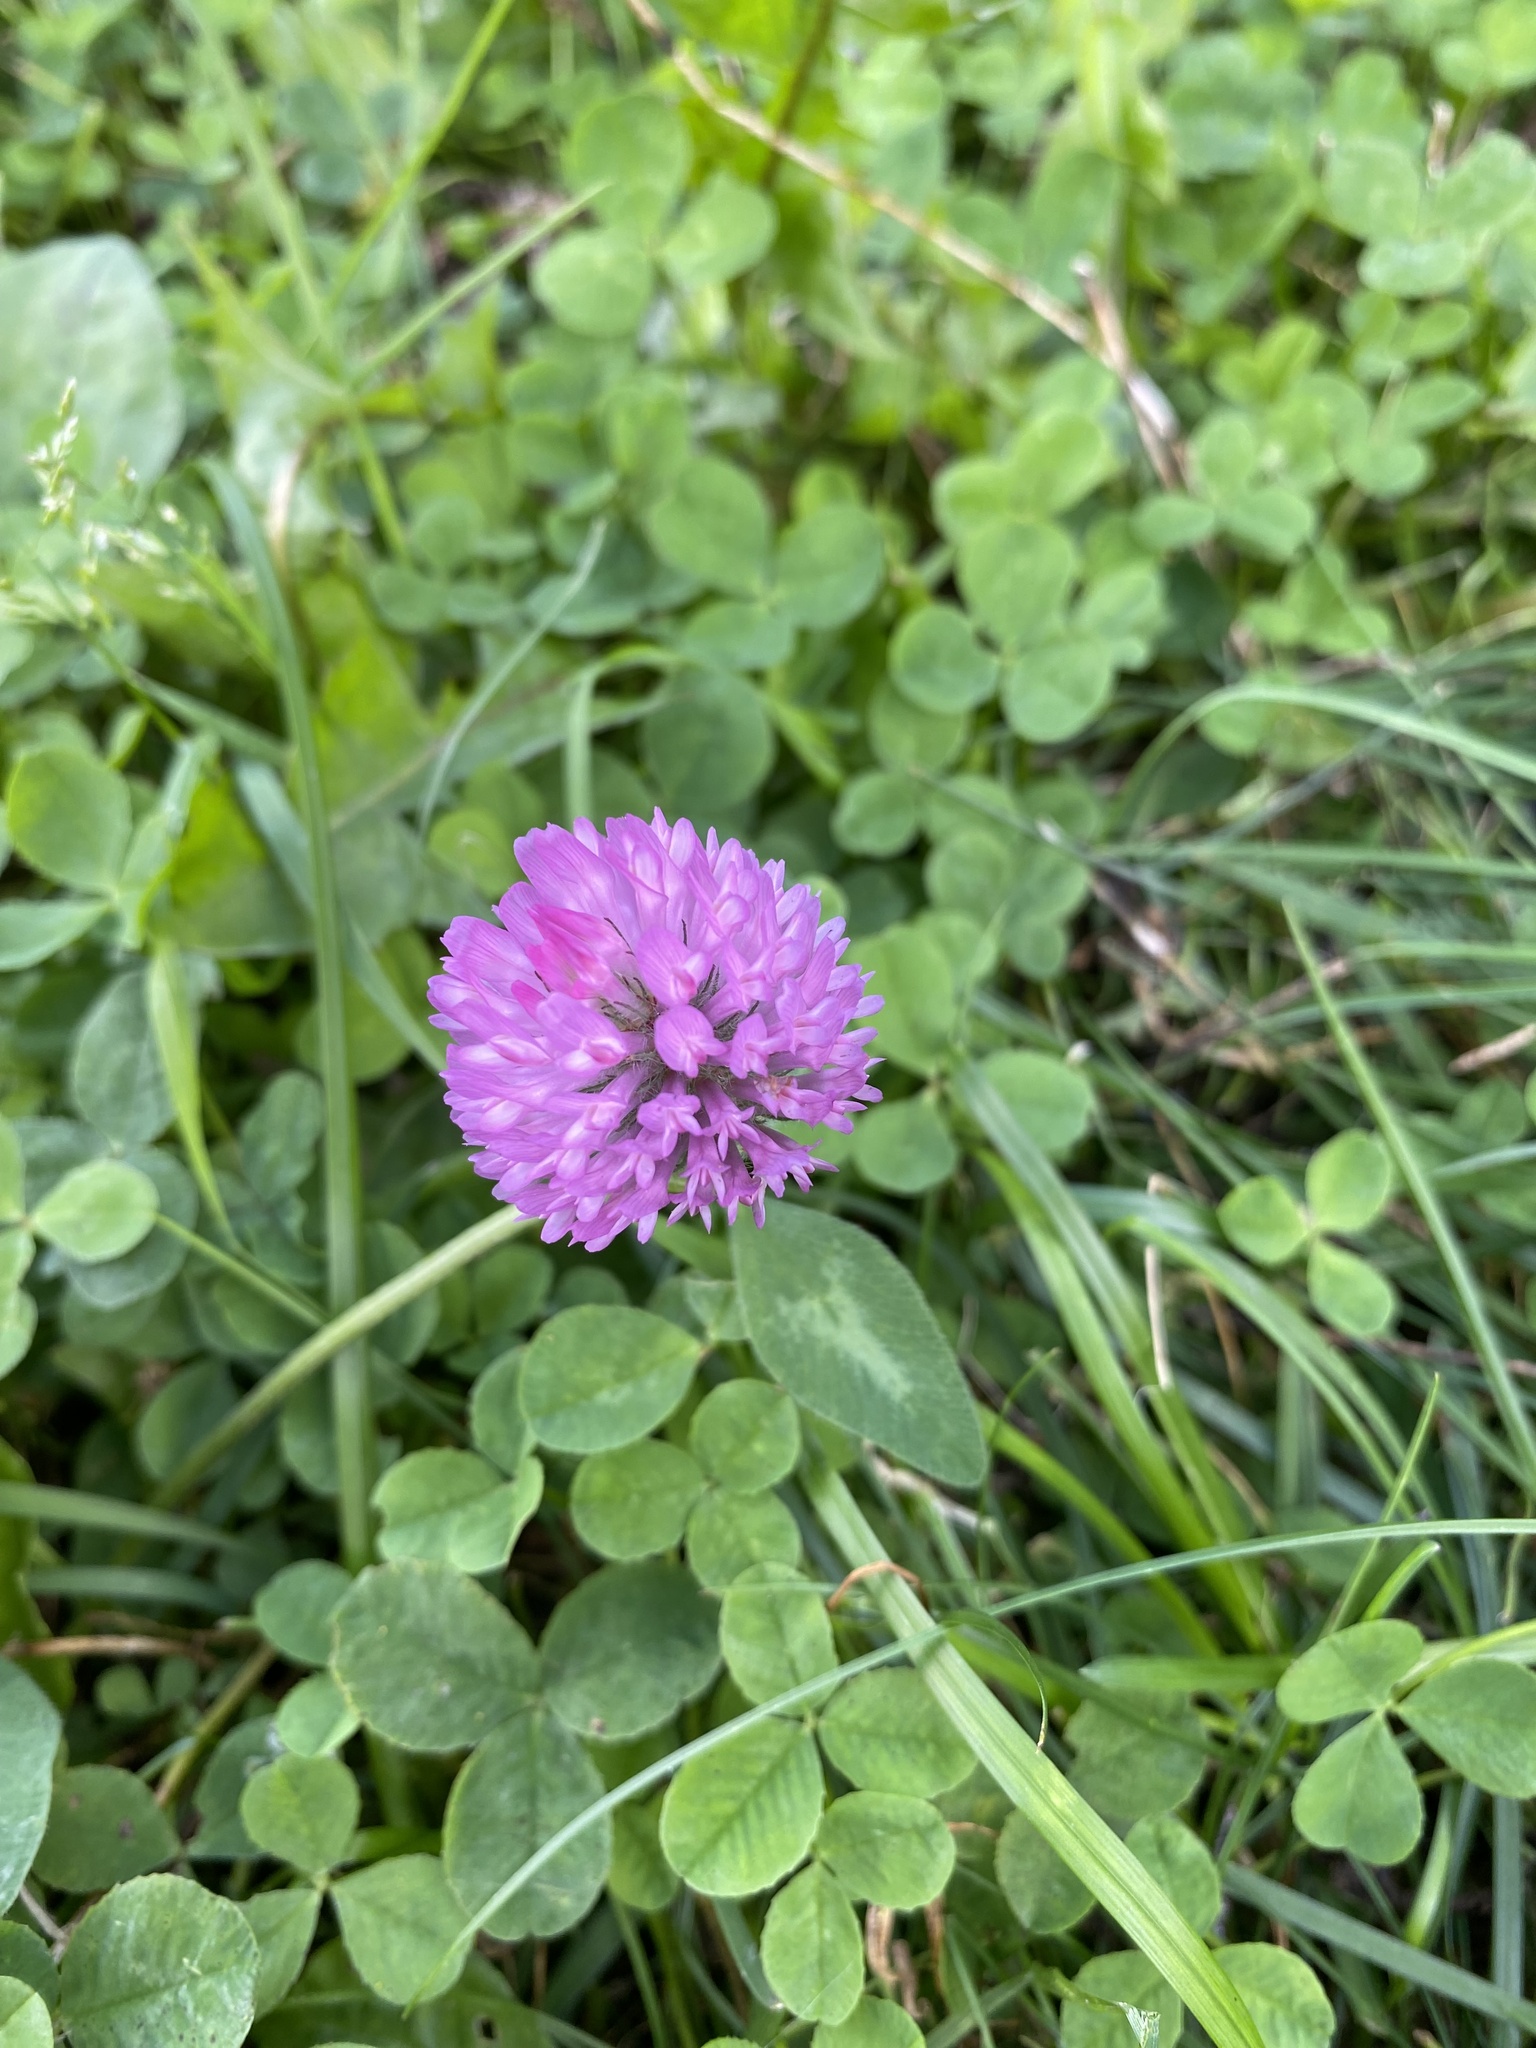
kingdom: Plantae
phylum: Tracheophyta
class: Magnoliopsida
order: Fabales
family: Fabaceae
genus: Trifolium
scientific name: Trifolium pratense
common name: Red clover
